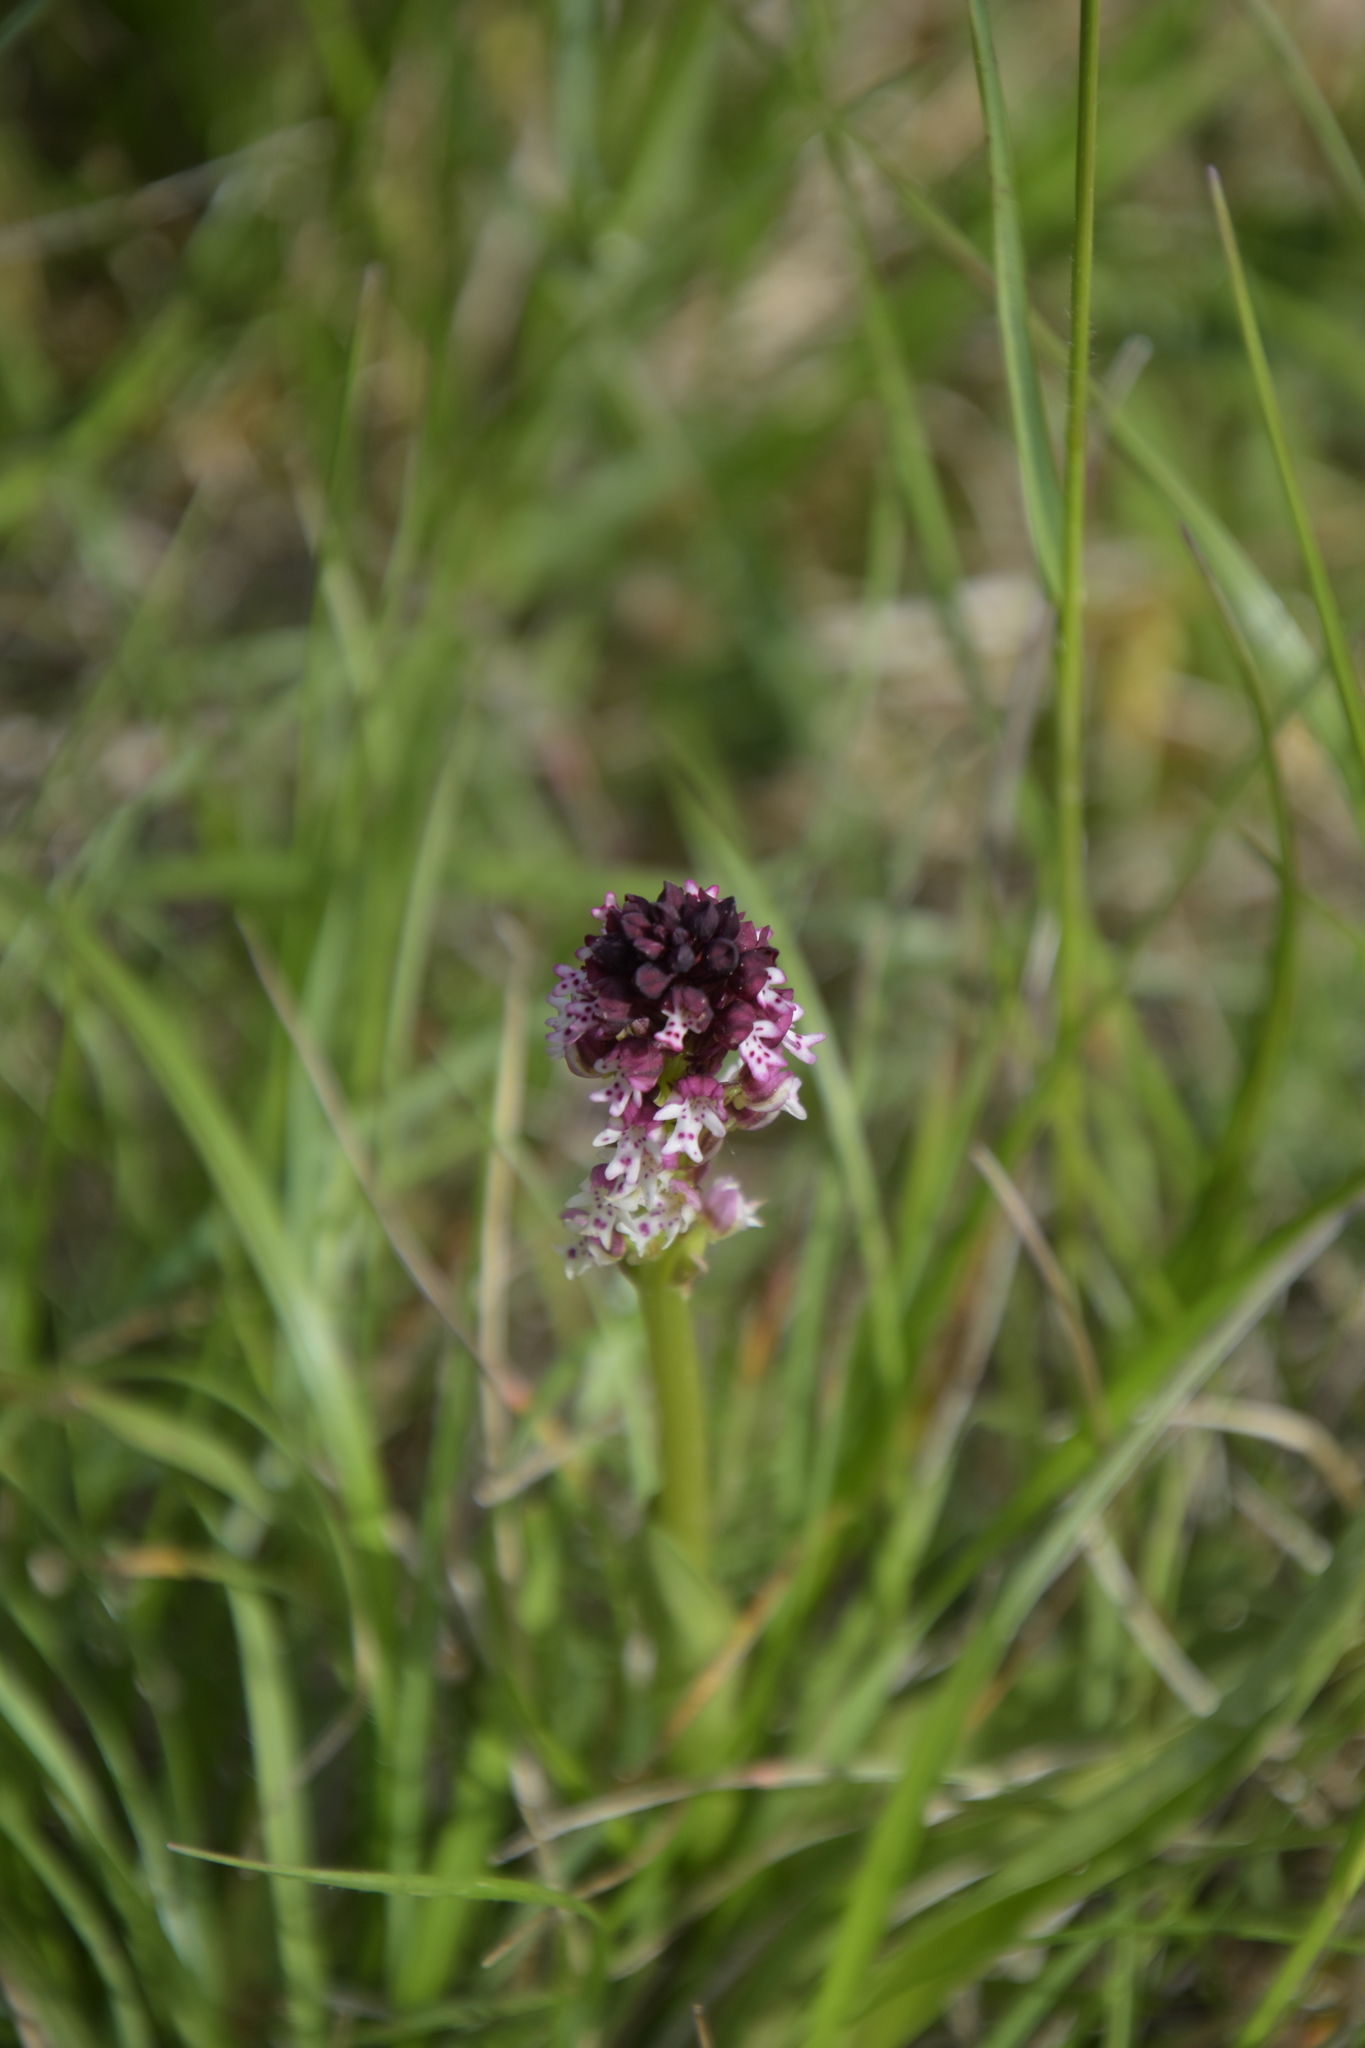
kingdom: Plantae
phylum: Tracheophyta
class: Liliopsida
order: Asparagales
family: Orchidaceae
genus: Neotinea
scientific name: Neotinea ustulata
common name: Burnt orchid
